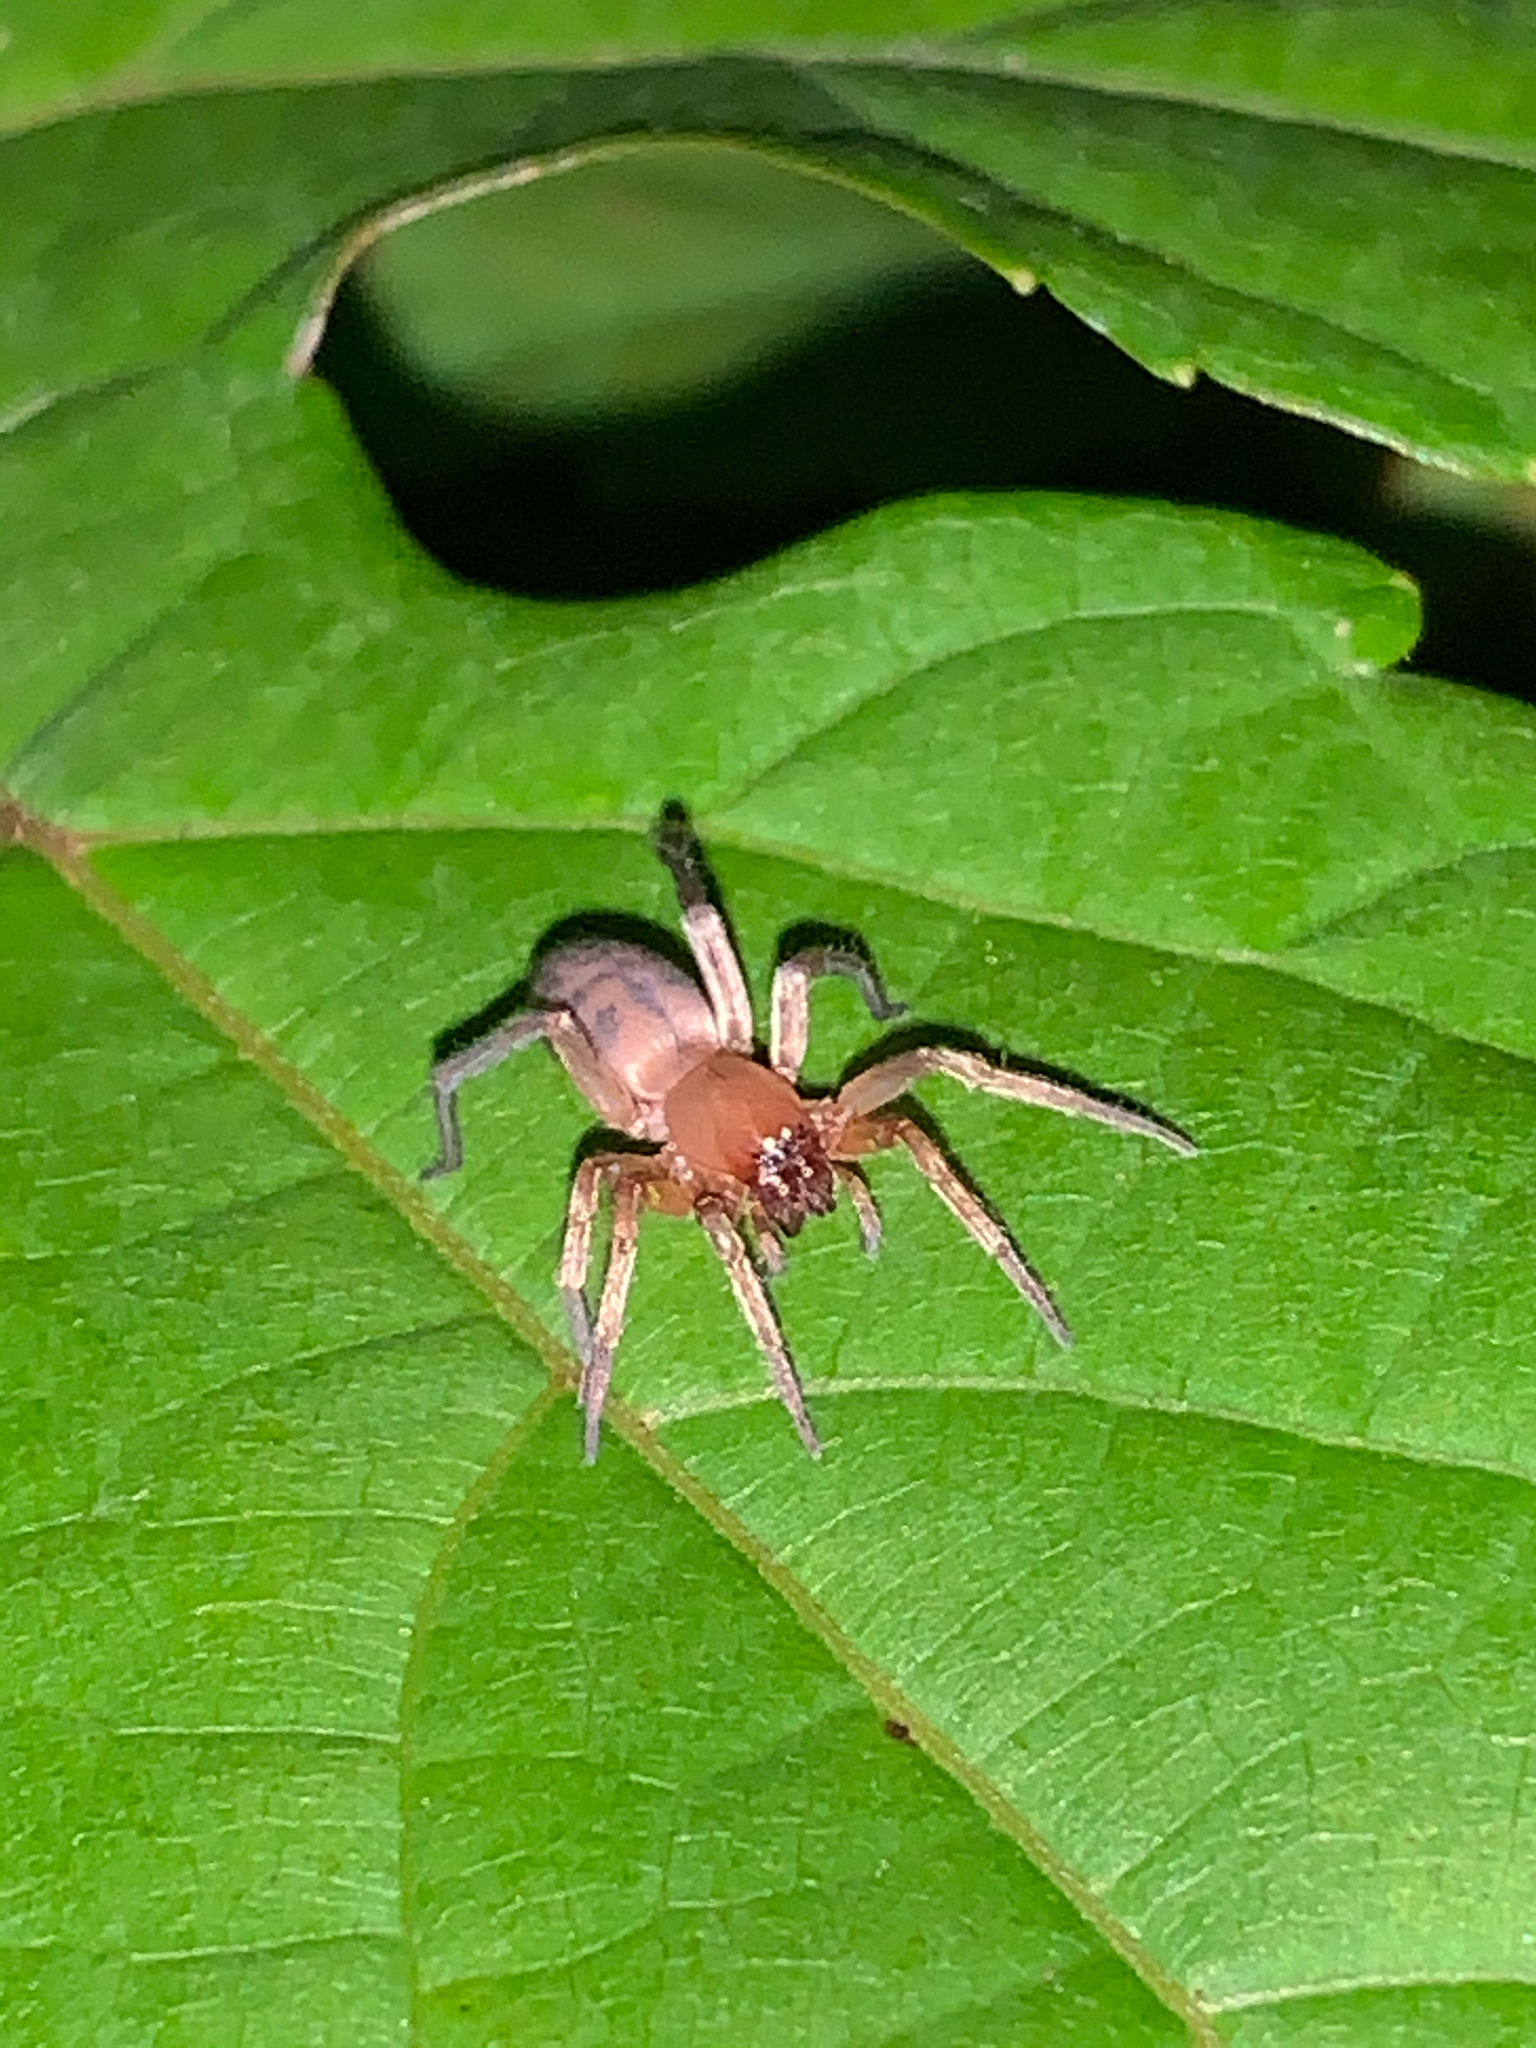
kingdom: Animalia
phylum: Arthropoda
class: Arachnida
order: Araneae
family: Clubionidae
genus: Elaver
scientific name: Elaver excepta
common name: White sac spider
